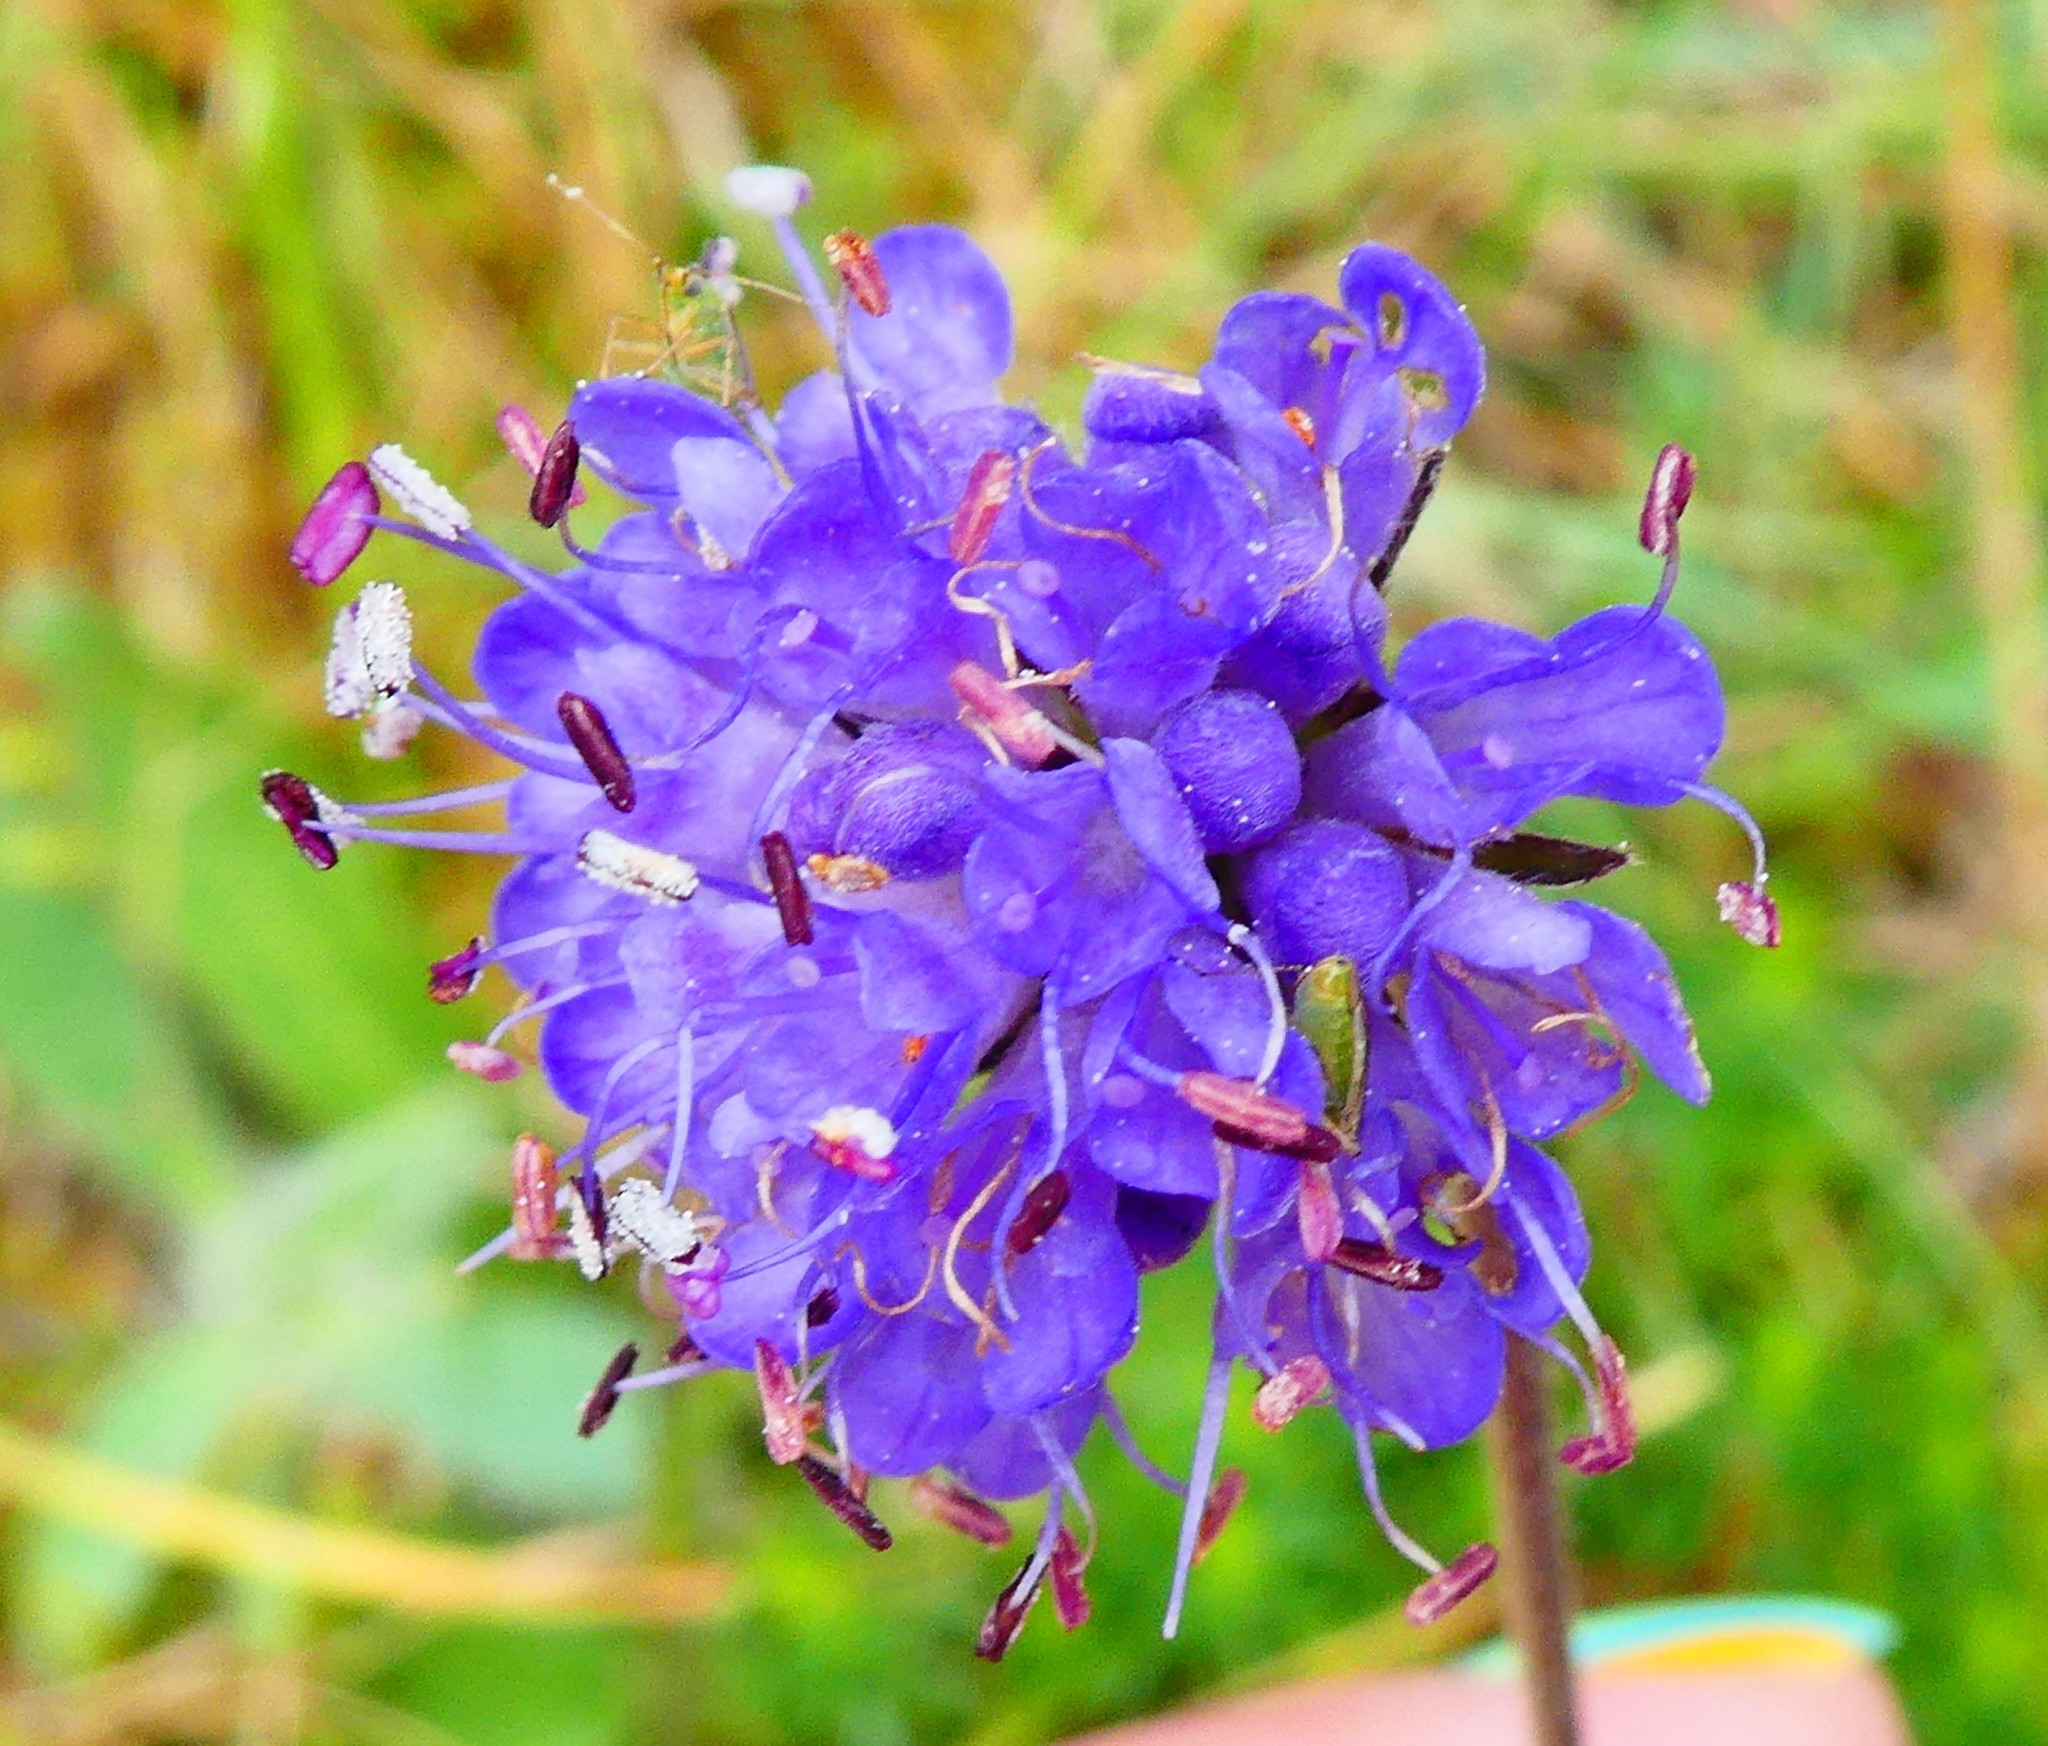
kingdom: Plantae
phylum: Tracheophyta
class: Magnoliopsida
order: Dipsacales
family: Caprifoliaceae
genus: Succisa
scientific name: Succisa pratensis
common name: Devil's-bit
